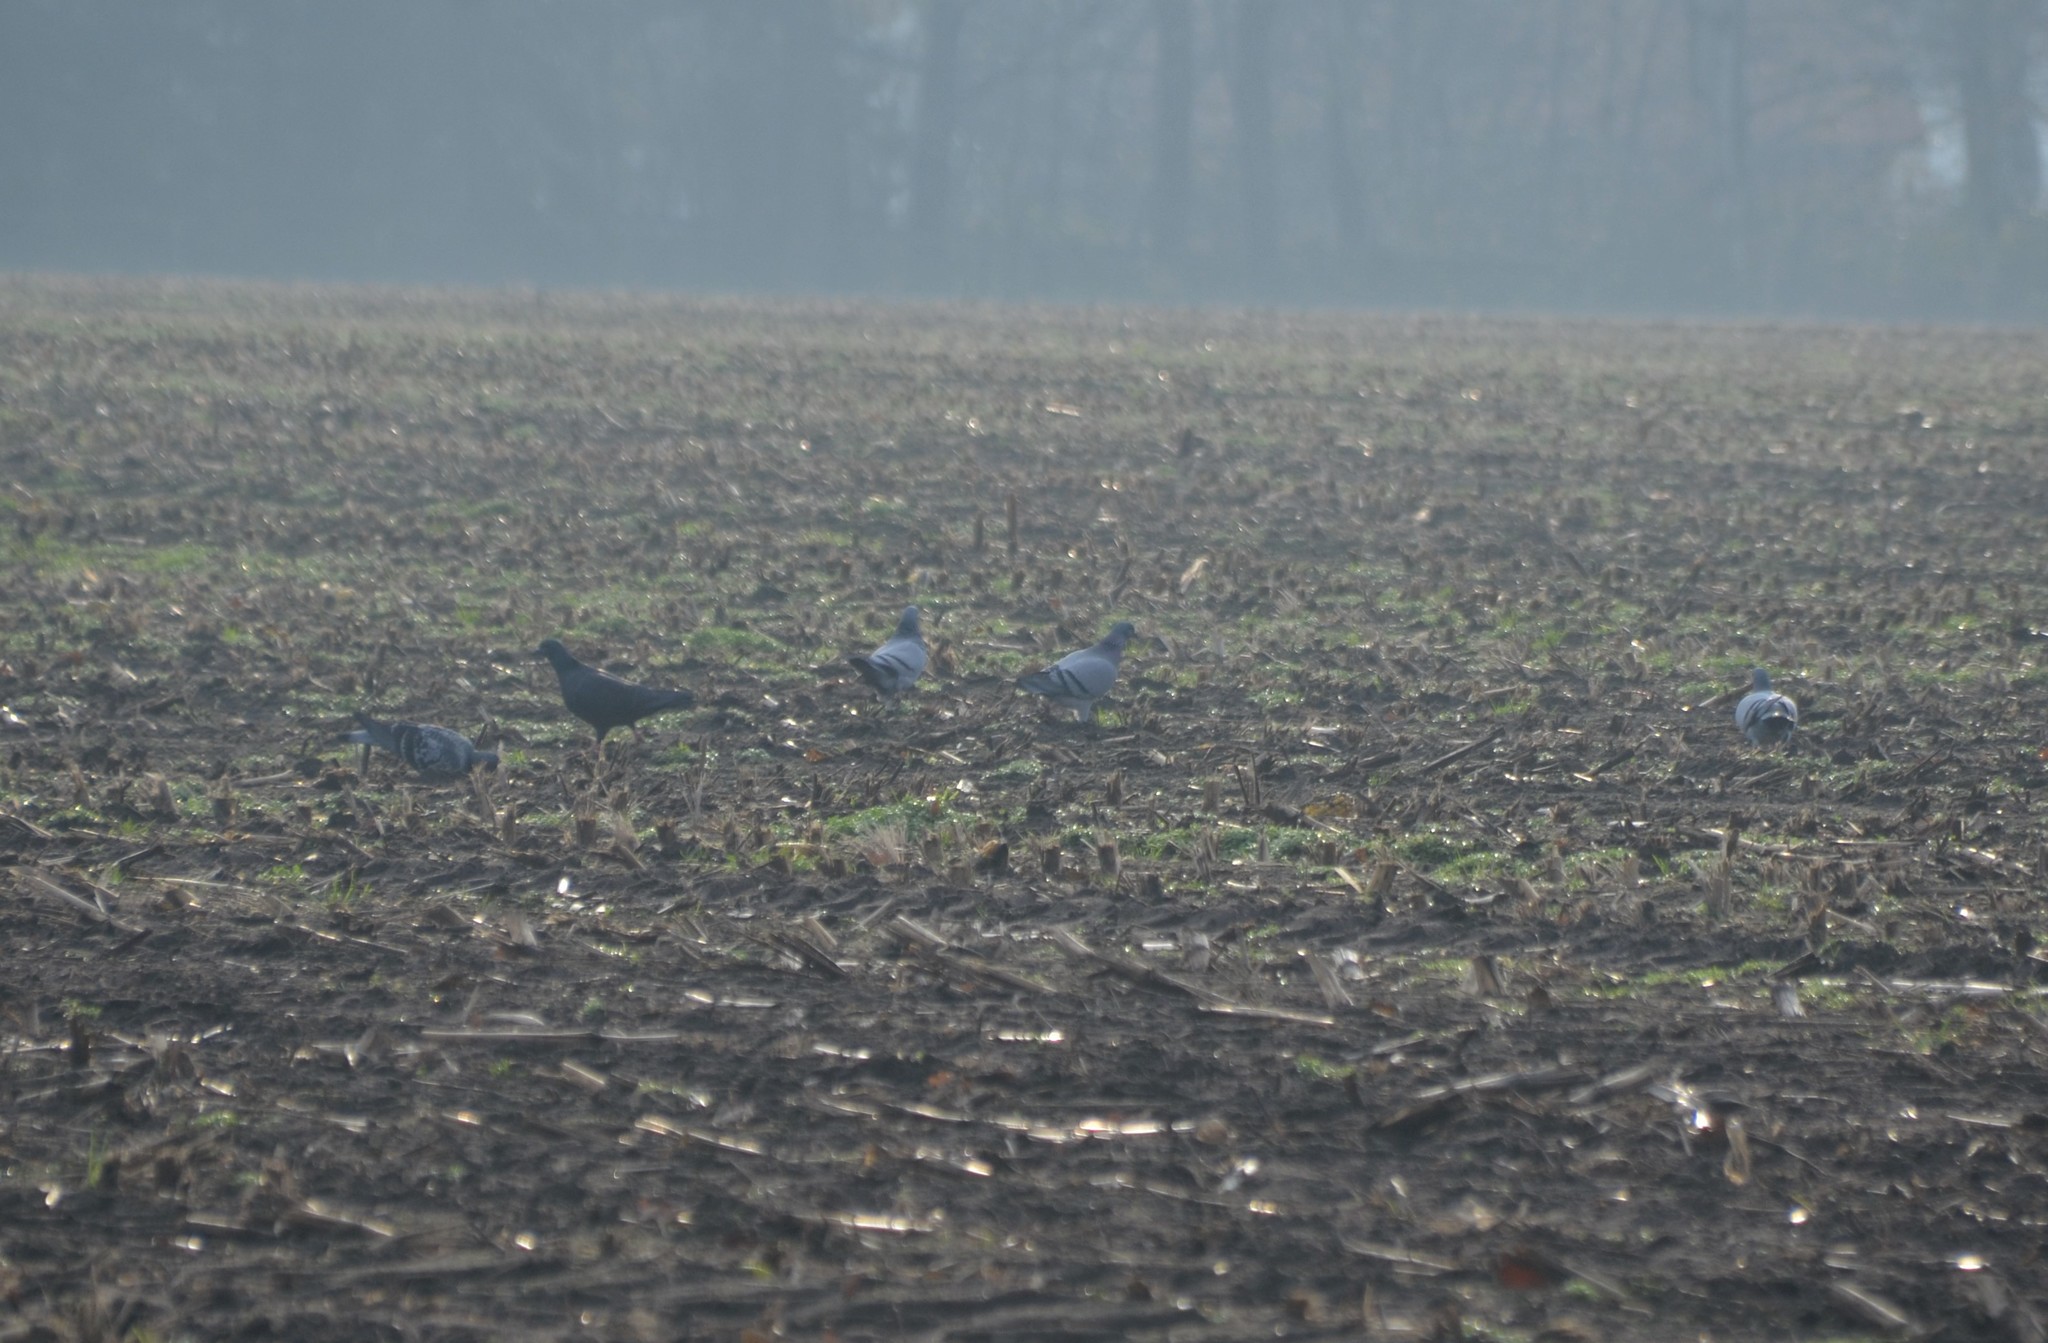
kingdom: Animalia
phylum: Chordata
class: Aves
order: Columbiformes
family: Columbidae
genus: Columba
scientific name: Columba livia
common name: Rock pigeon
